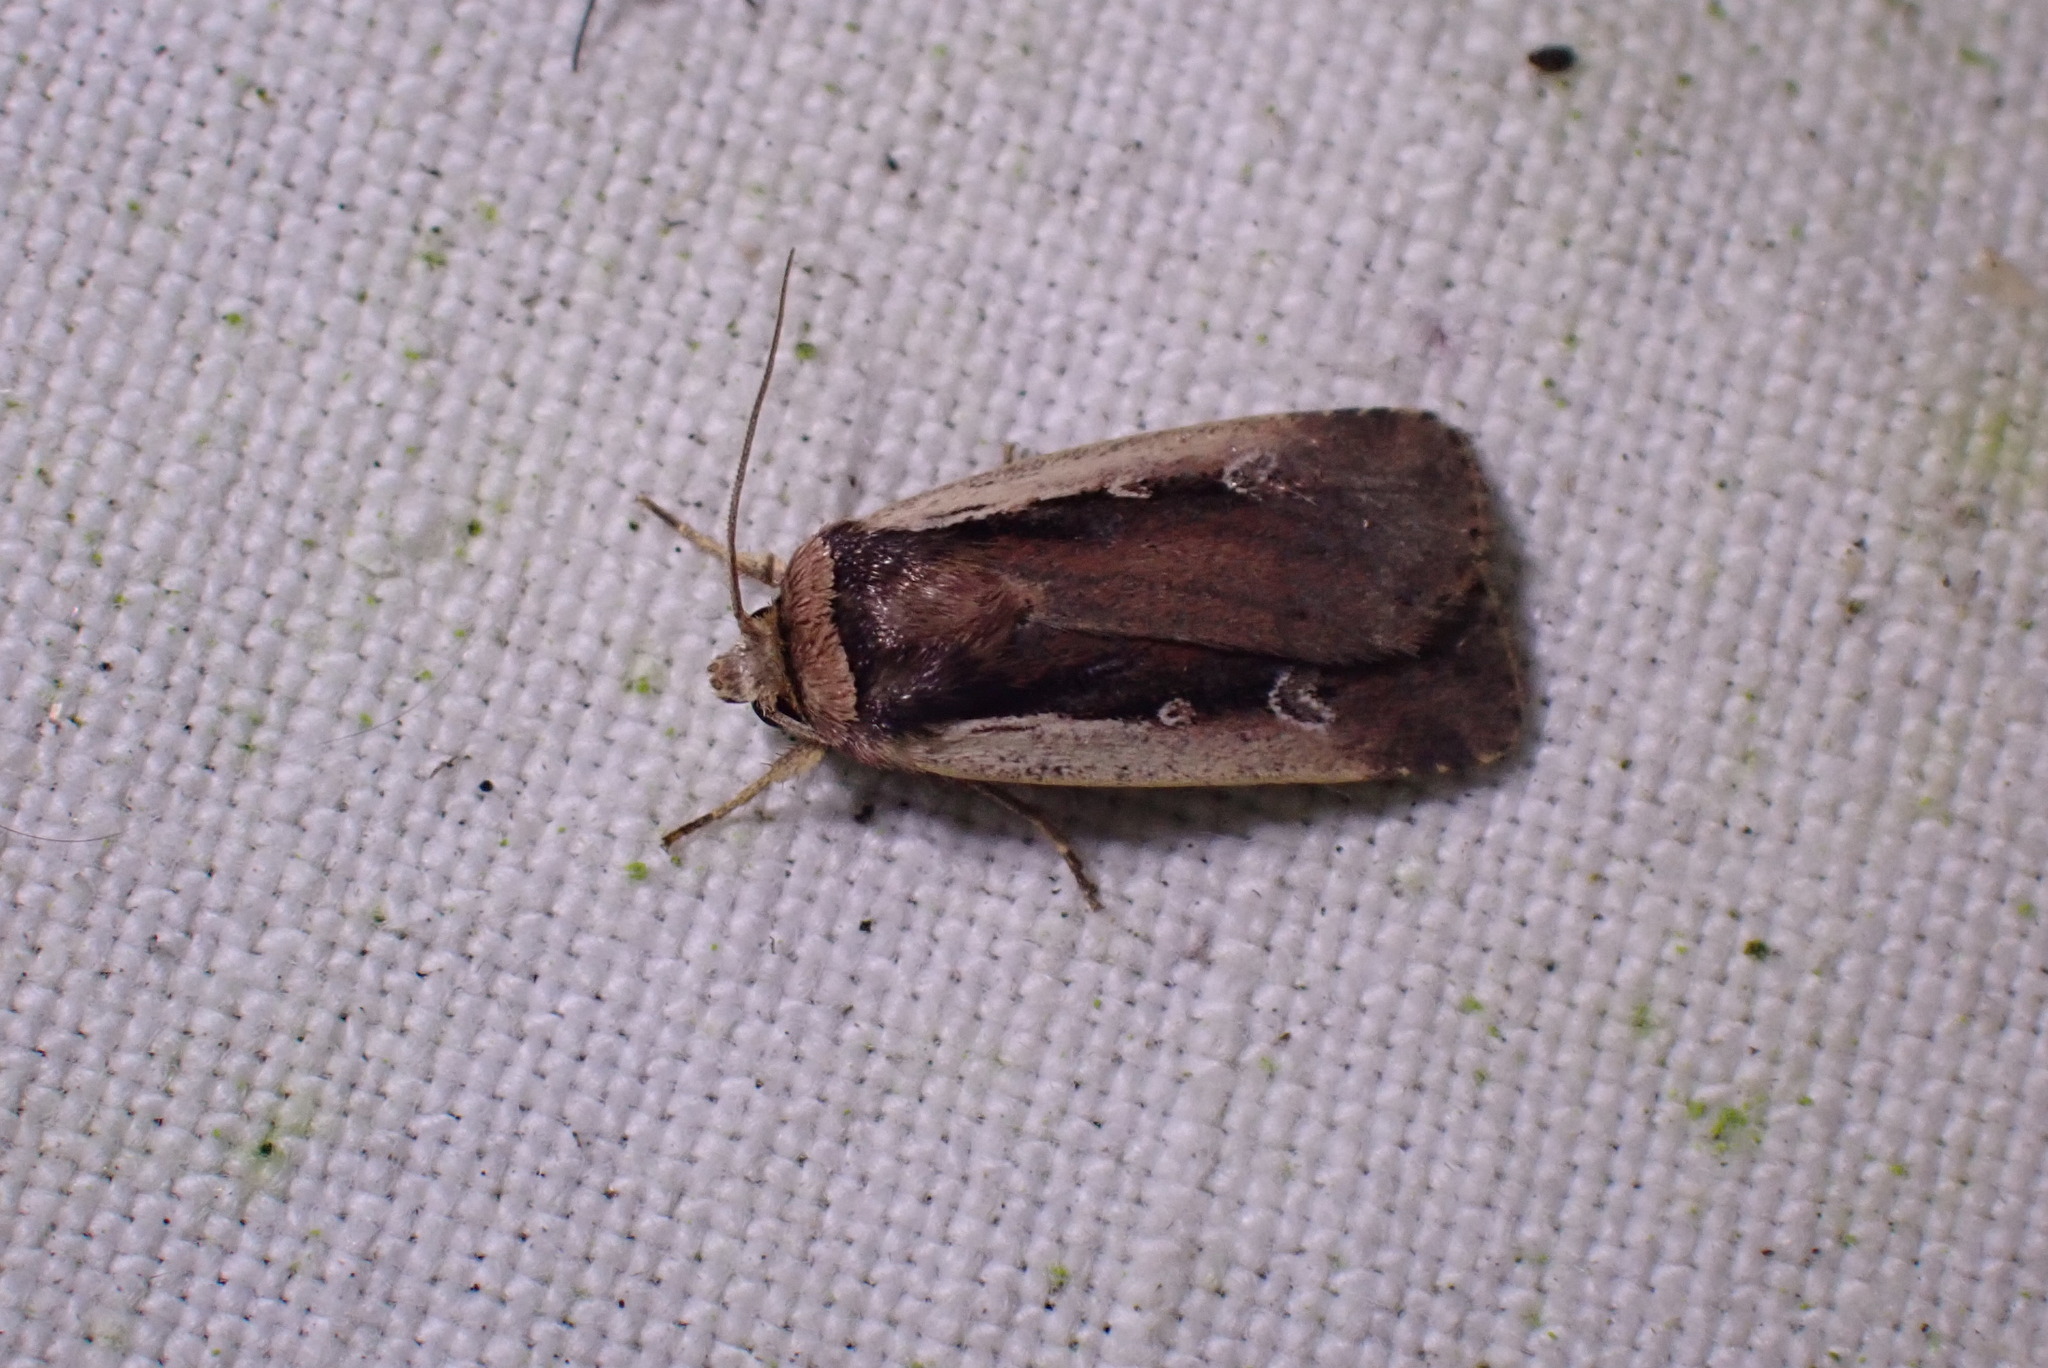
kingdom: Animalia
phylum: Arthropoda
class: Insecta
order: Lepidoptera
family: Noctuidae
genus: Ochropleura
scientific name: Ochropleura plecta
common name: Flame shoulder
